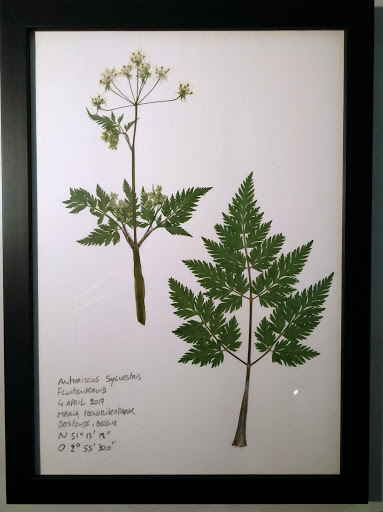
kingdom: Plantae
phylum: Tracheophyta
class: Magnoliopsida
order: Apiales
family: Apiaceae
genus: Anthriscus
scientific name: Anthriscus sylvestris
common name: Cow parsley
